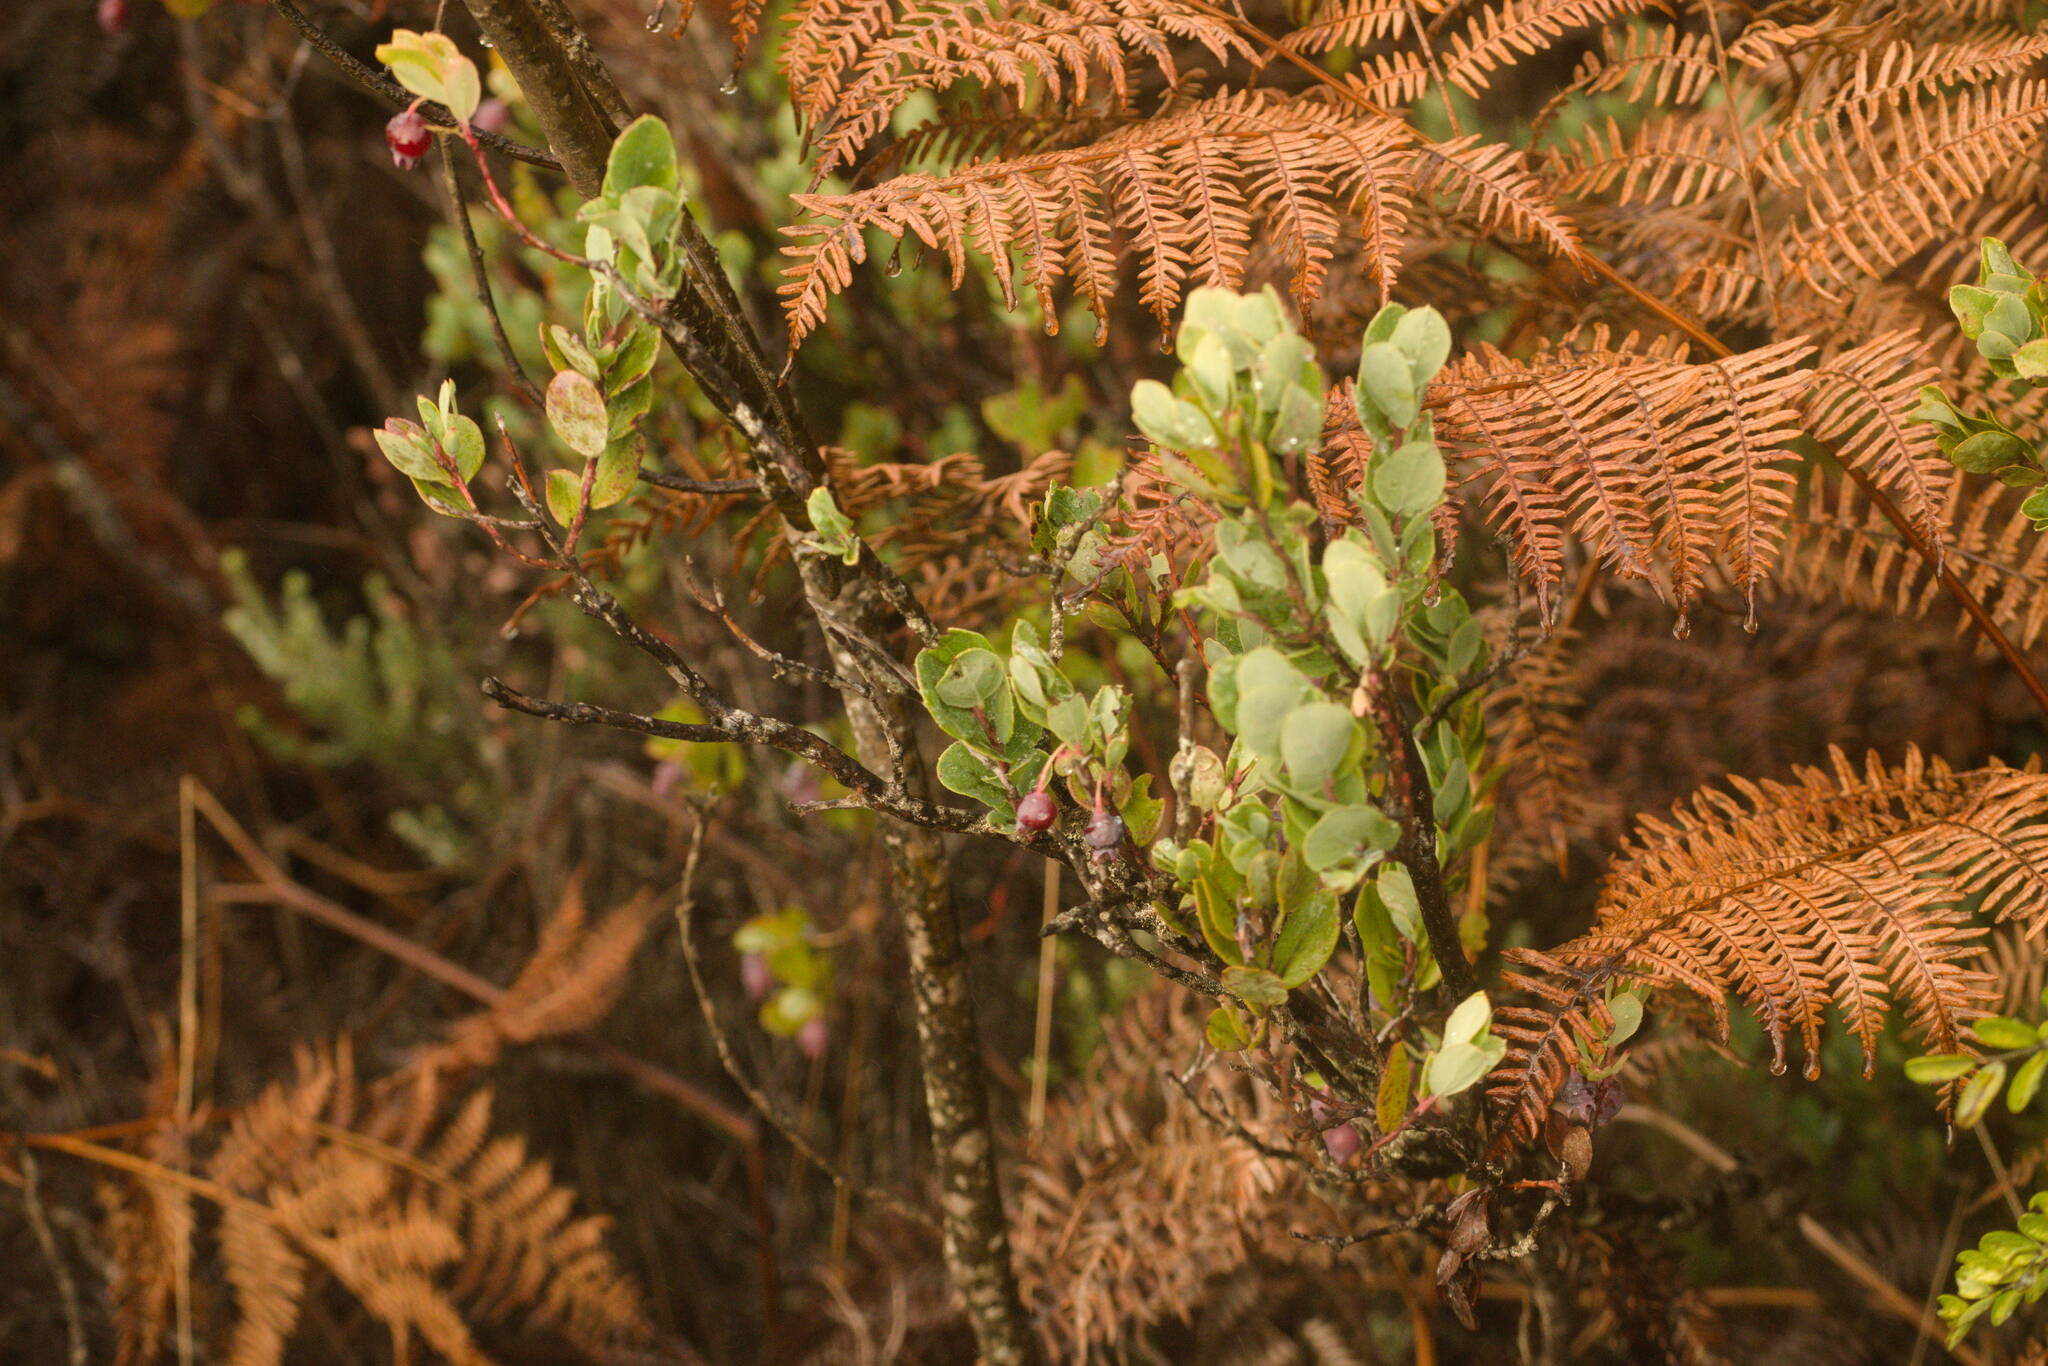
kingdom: Plantae
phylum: Tracheophyta
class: Magnoliopsida
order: Ericales
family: Ericaceae
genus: Vaccinium
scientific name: Vaccinium reticulatum
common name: Ohelo
